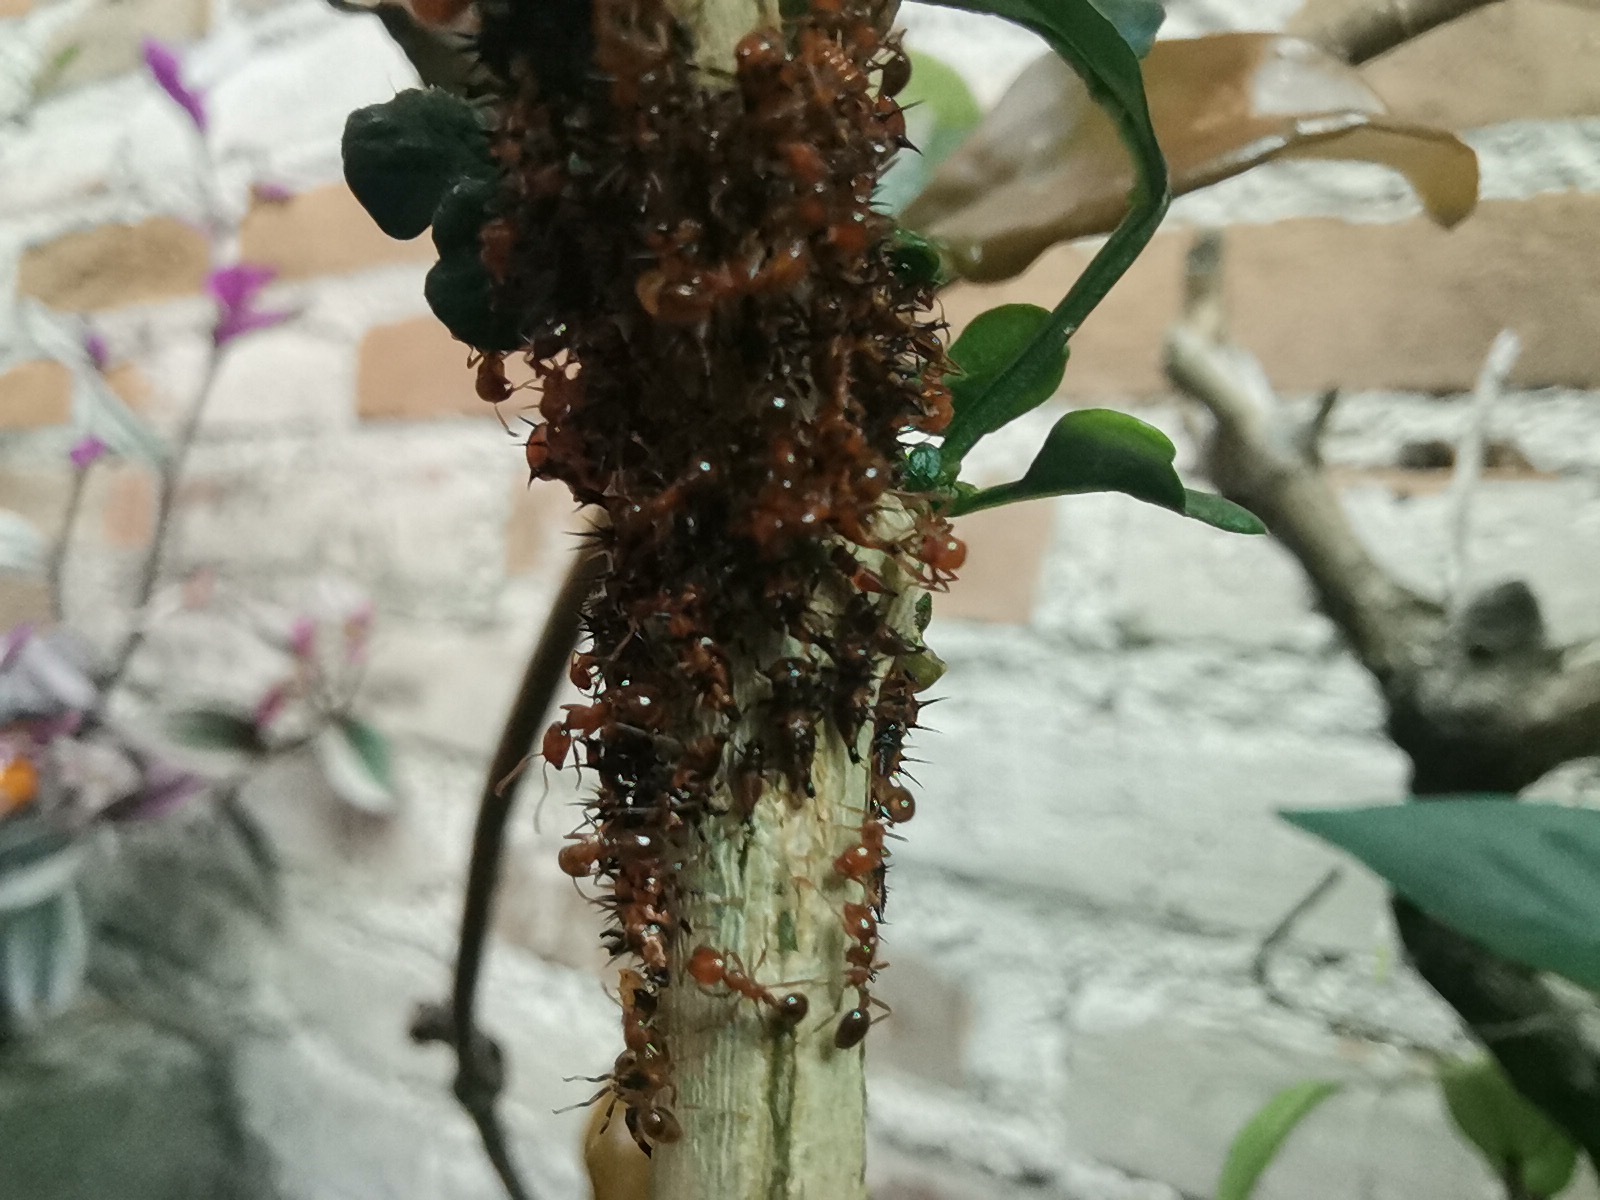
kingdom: Animalia
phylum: Arthropoda
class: Insecta
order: Hymenoptera
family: Formicidae
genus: Solenopsis
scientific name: Solenopsis geminata
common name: Tropical fire ant
